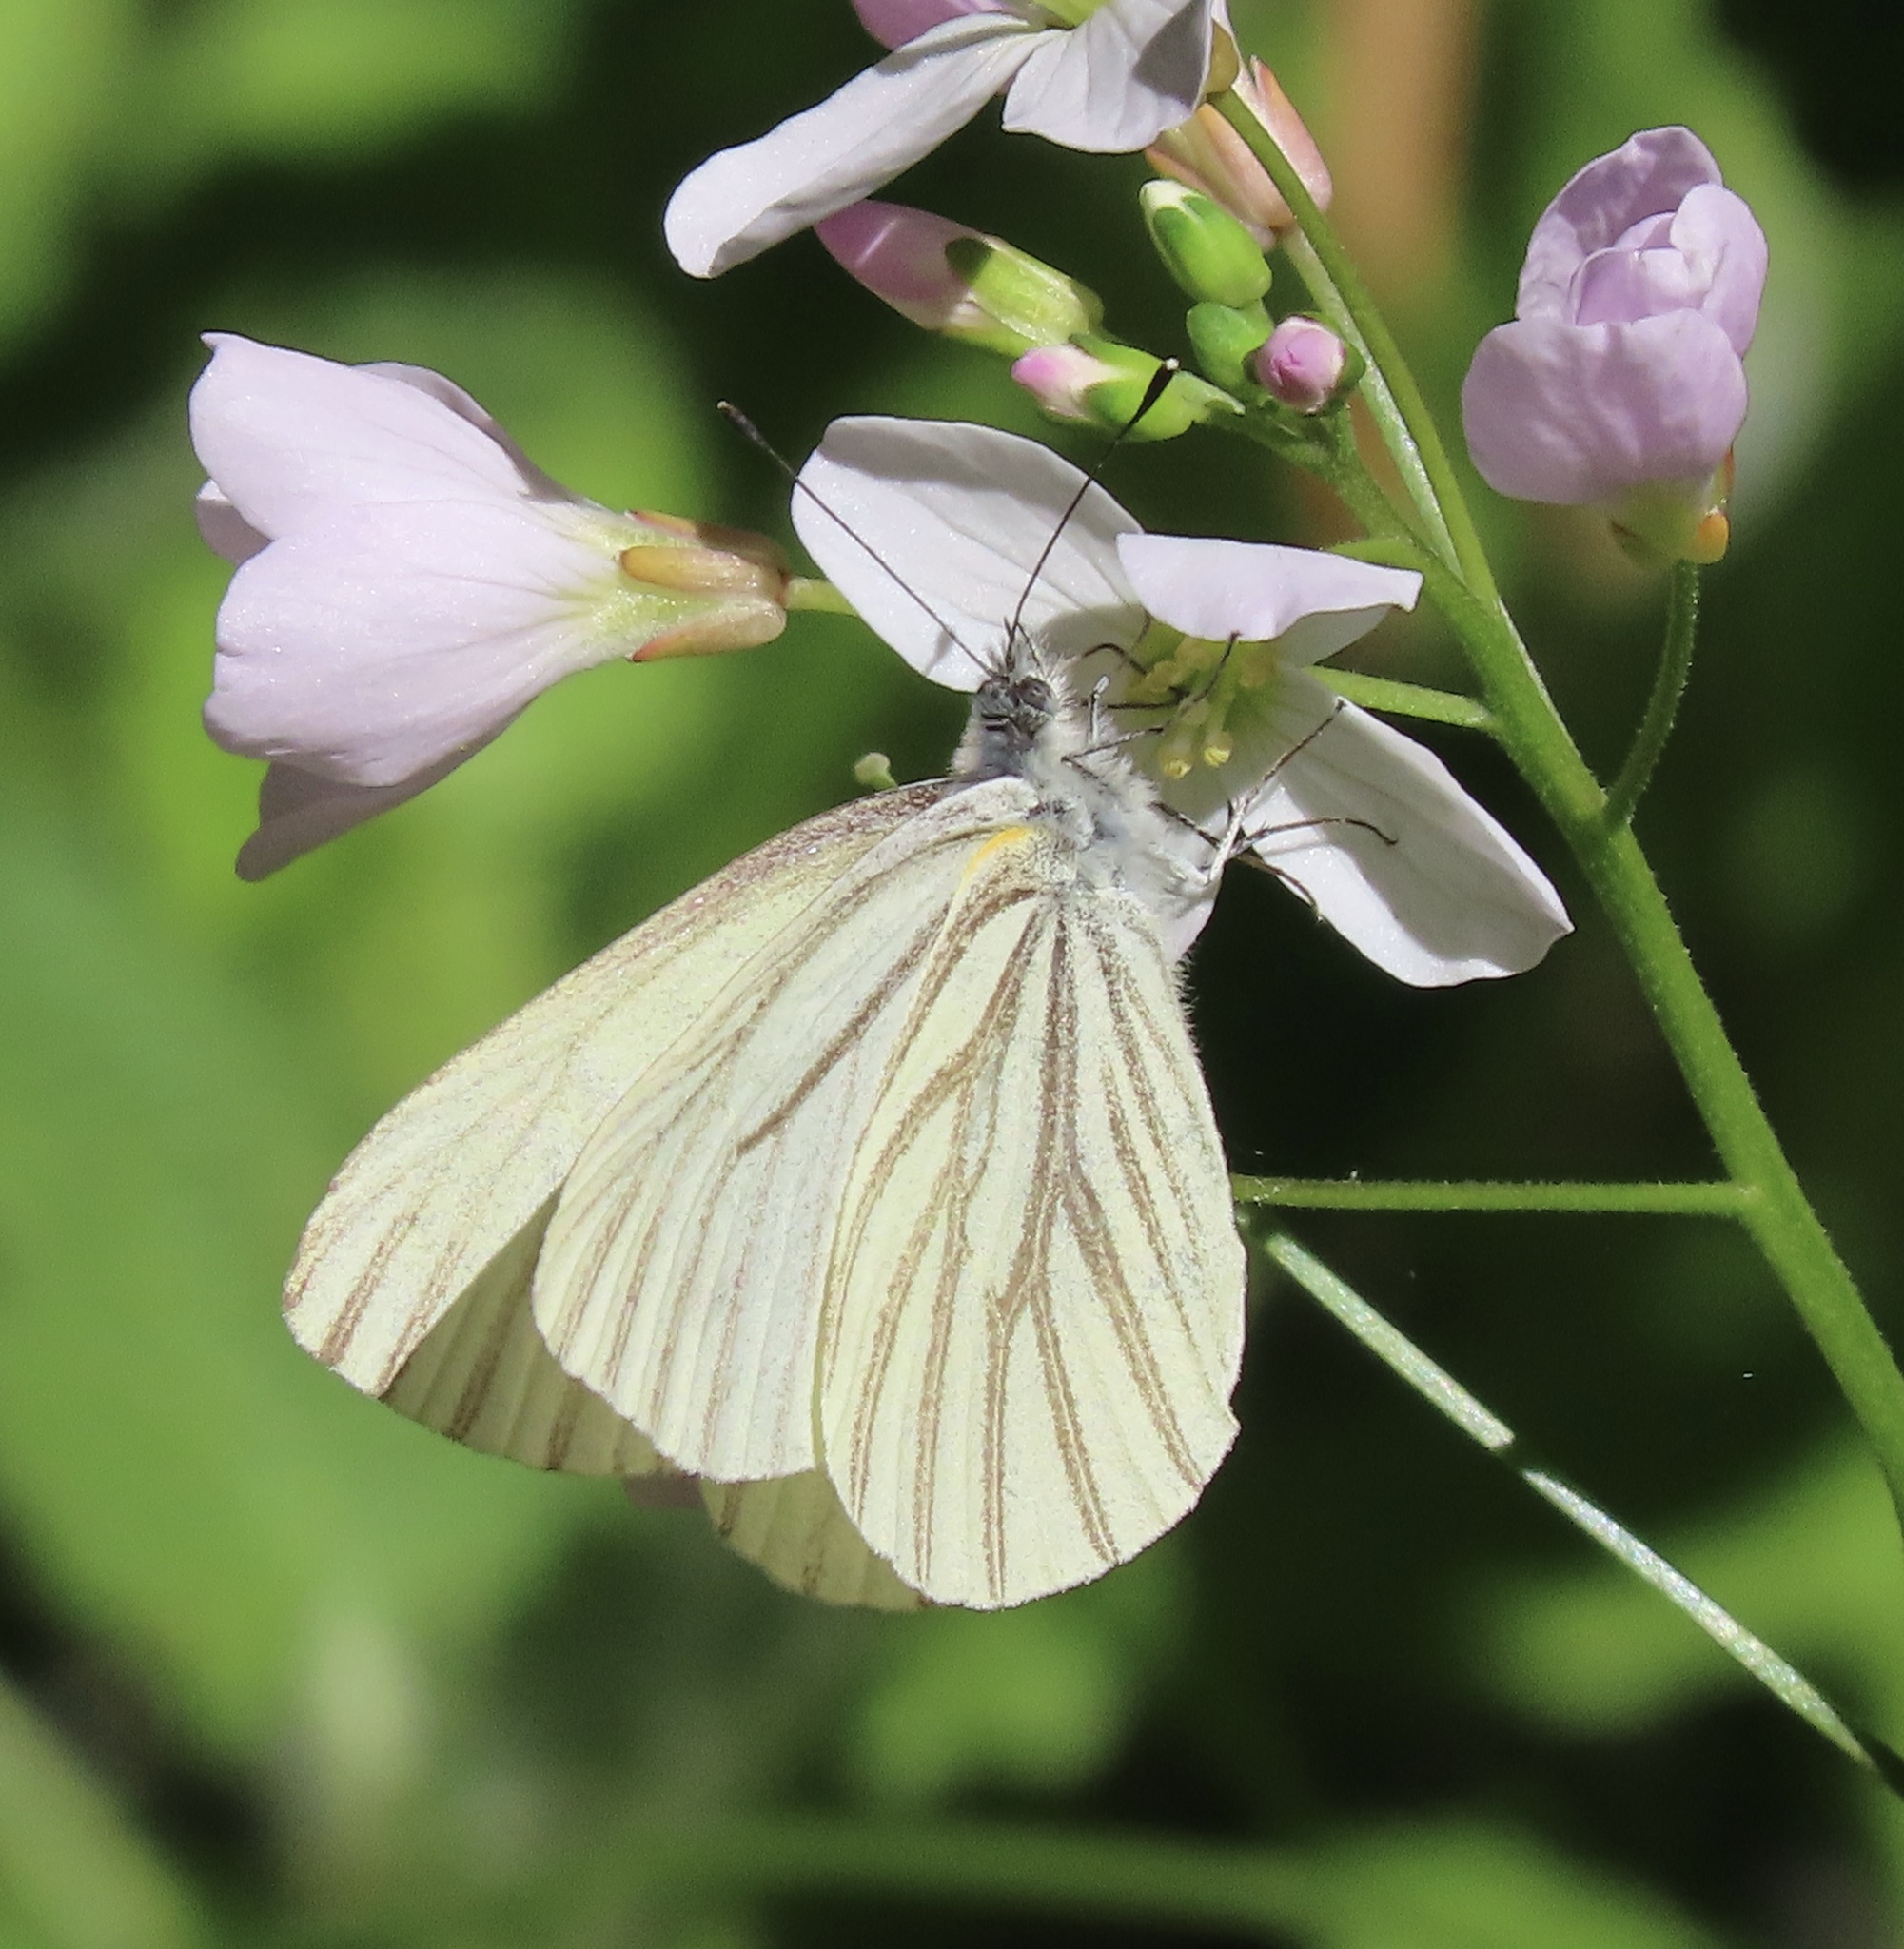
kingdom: Animalia
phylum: Arthropoda
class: Insecta
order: Lepidoptera
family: Pieridae
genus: Pieris
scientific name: Pieris marginalis
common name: Margined white
